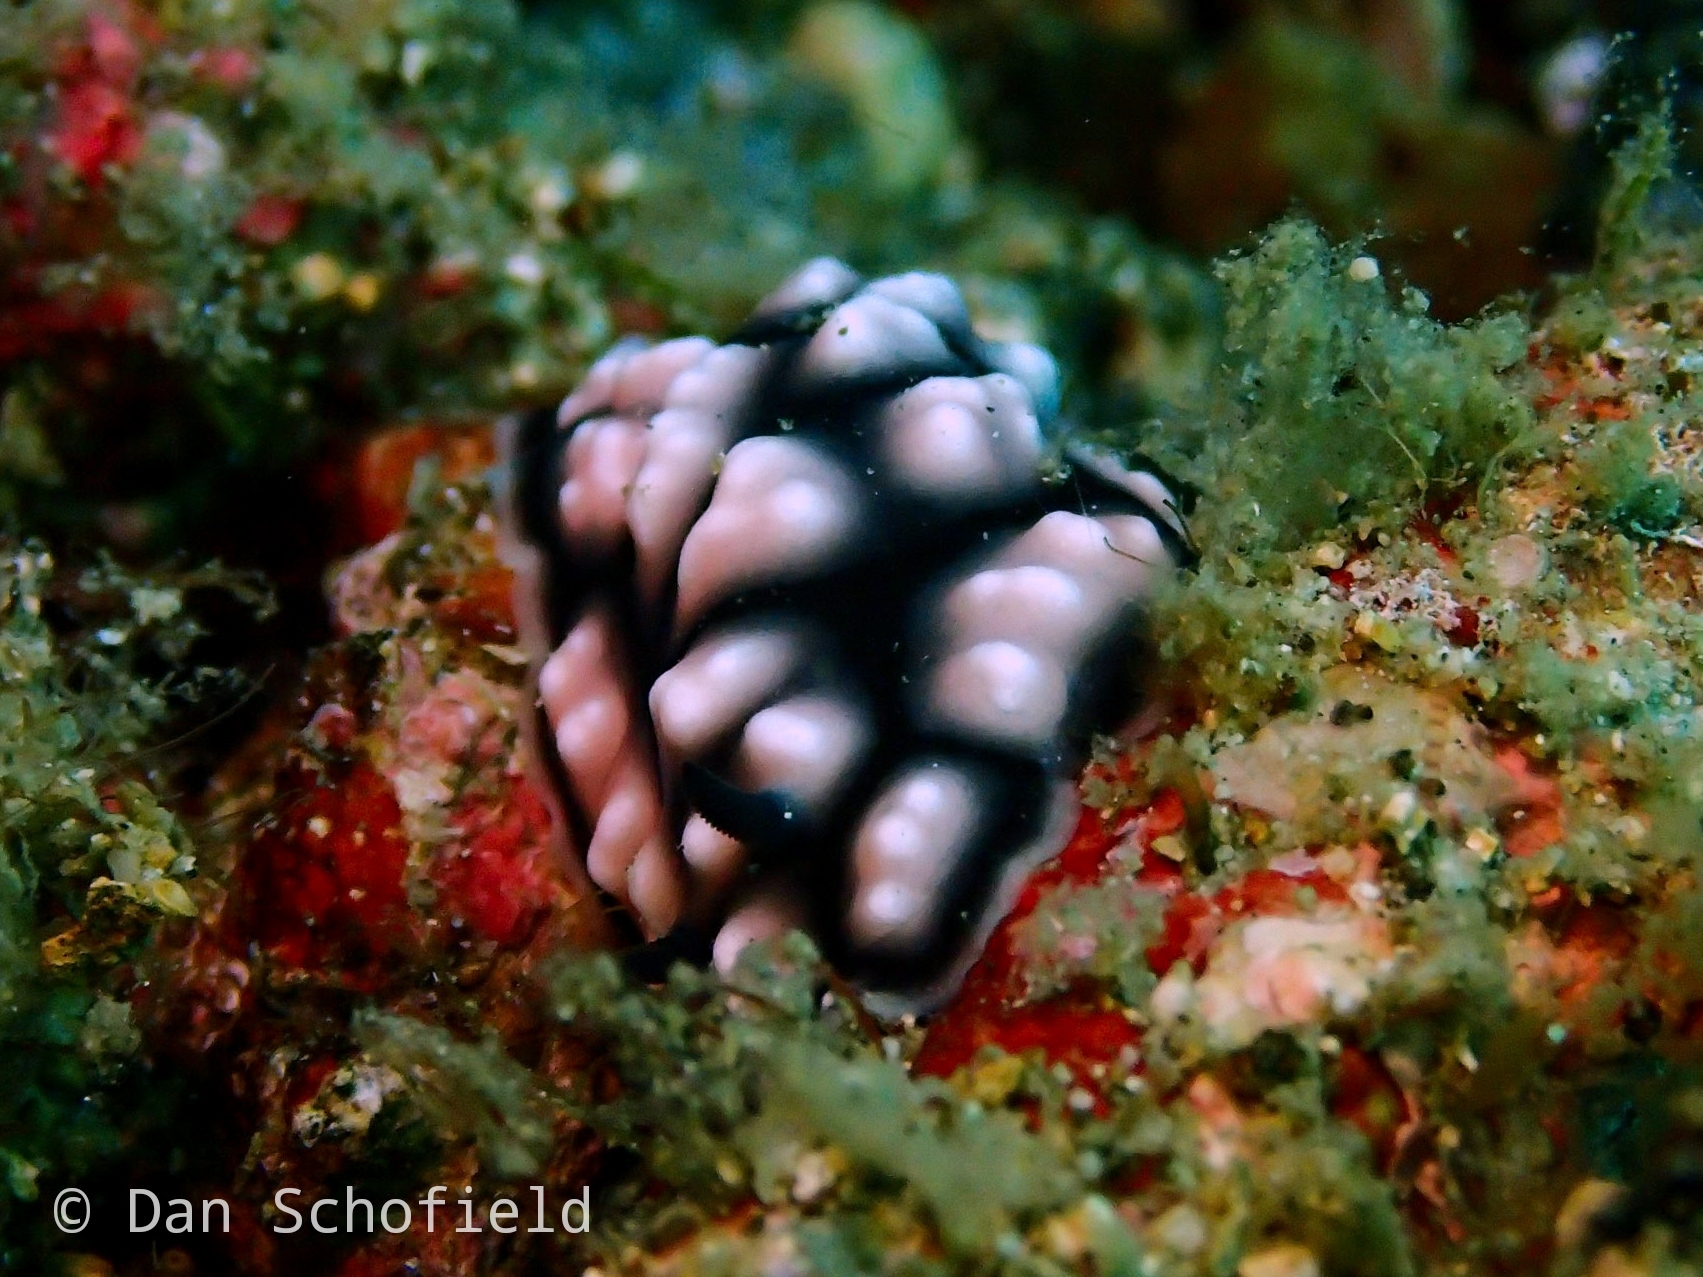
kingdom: Animalia
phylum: Mollusca
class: Gastropoda
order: Nudibranchia
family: Phyllidiidae
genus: Phyllidiella
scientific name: Phyllidiella pustulosa
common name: Pustular phyllidia
